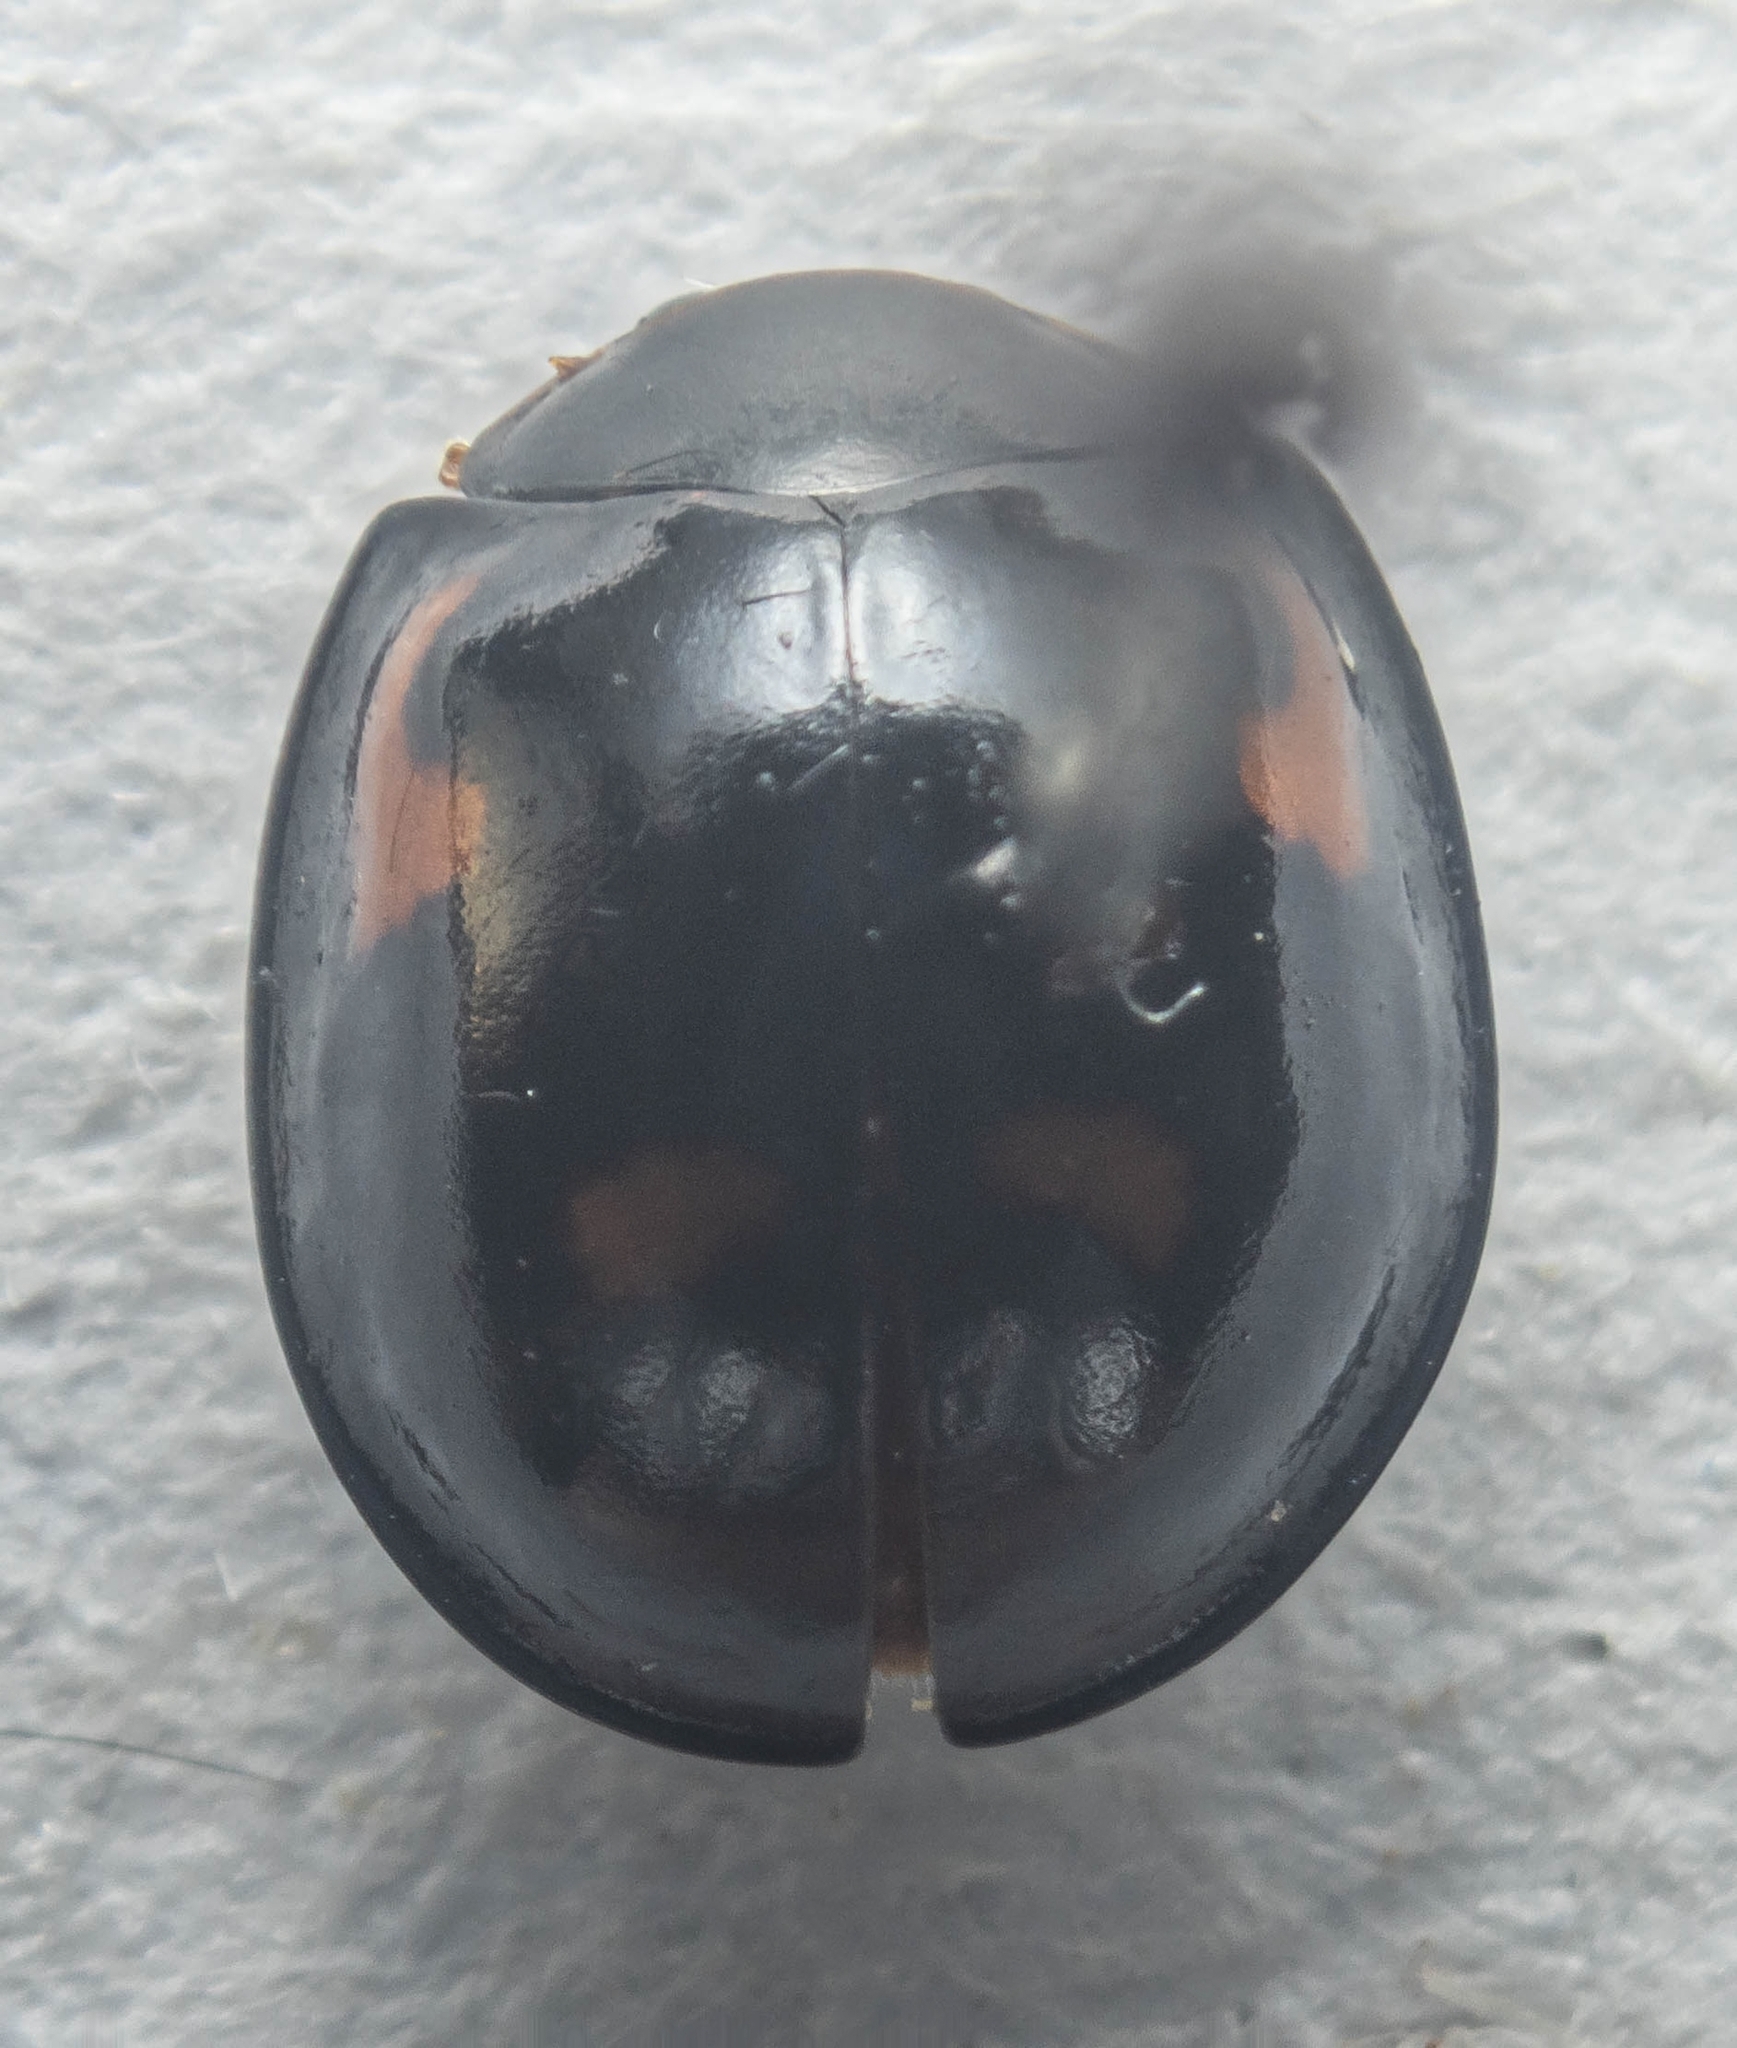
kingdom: Animalia
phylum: Arthropoda
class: Insecta
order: Coleoptera
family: Coccinellidae
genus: Brumus
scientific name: Brumus quadripustulatus
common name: Ladybird beetle
